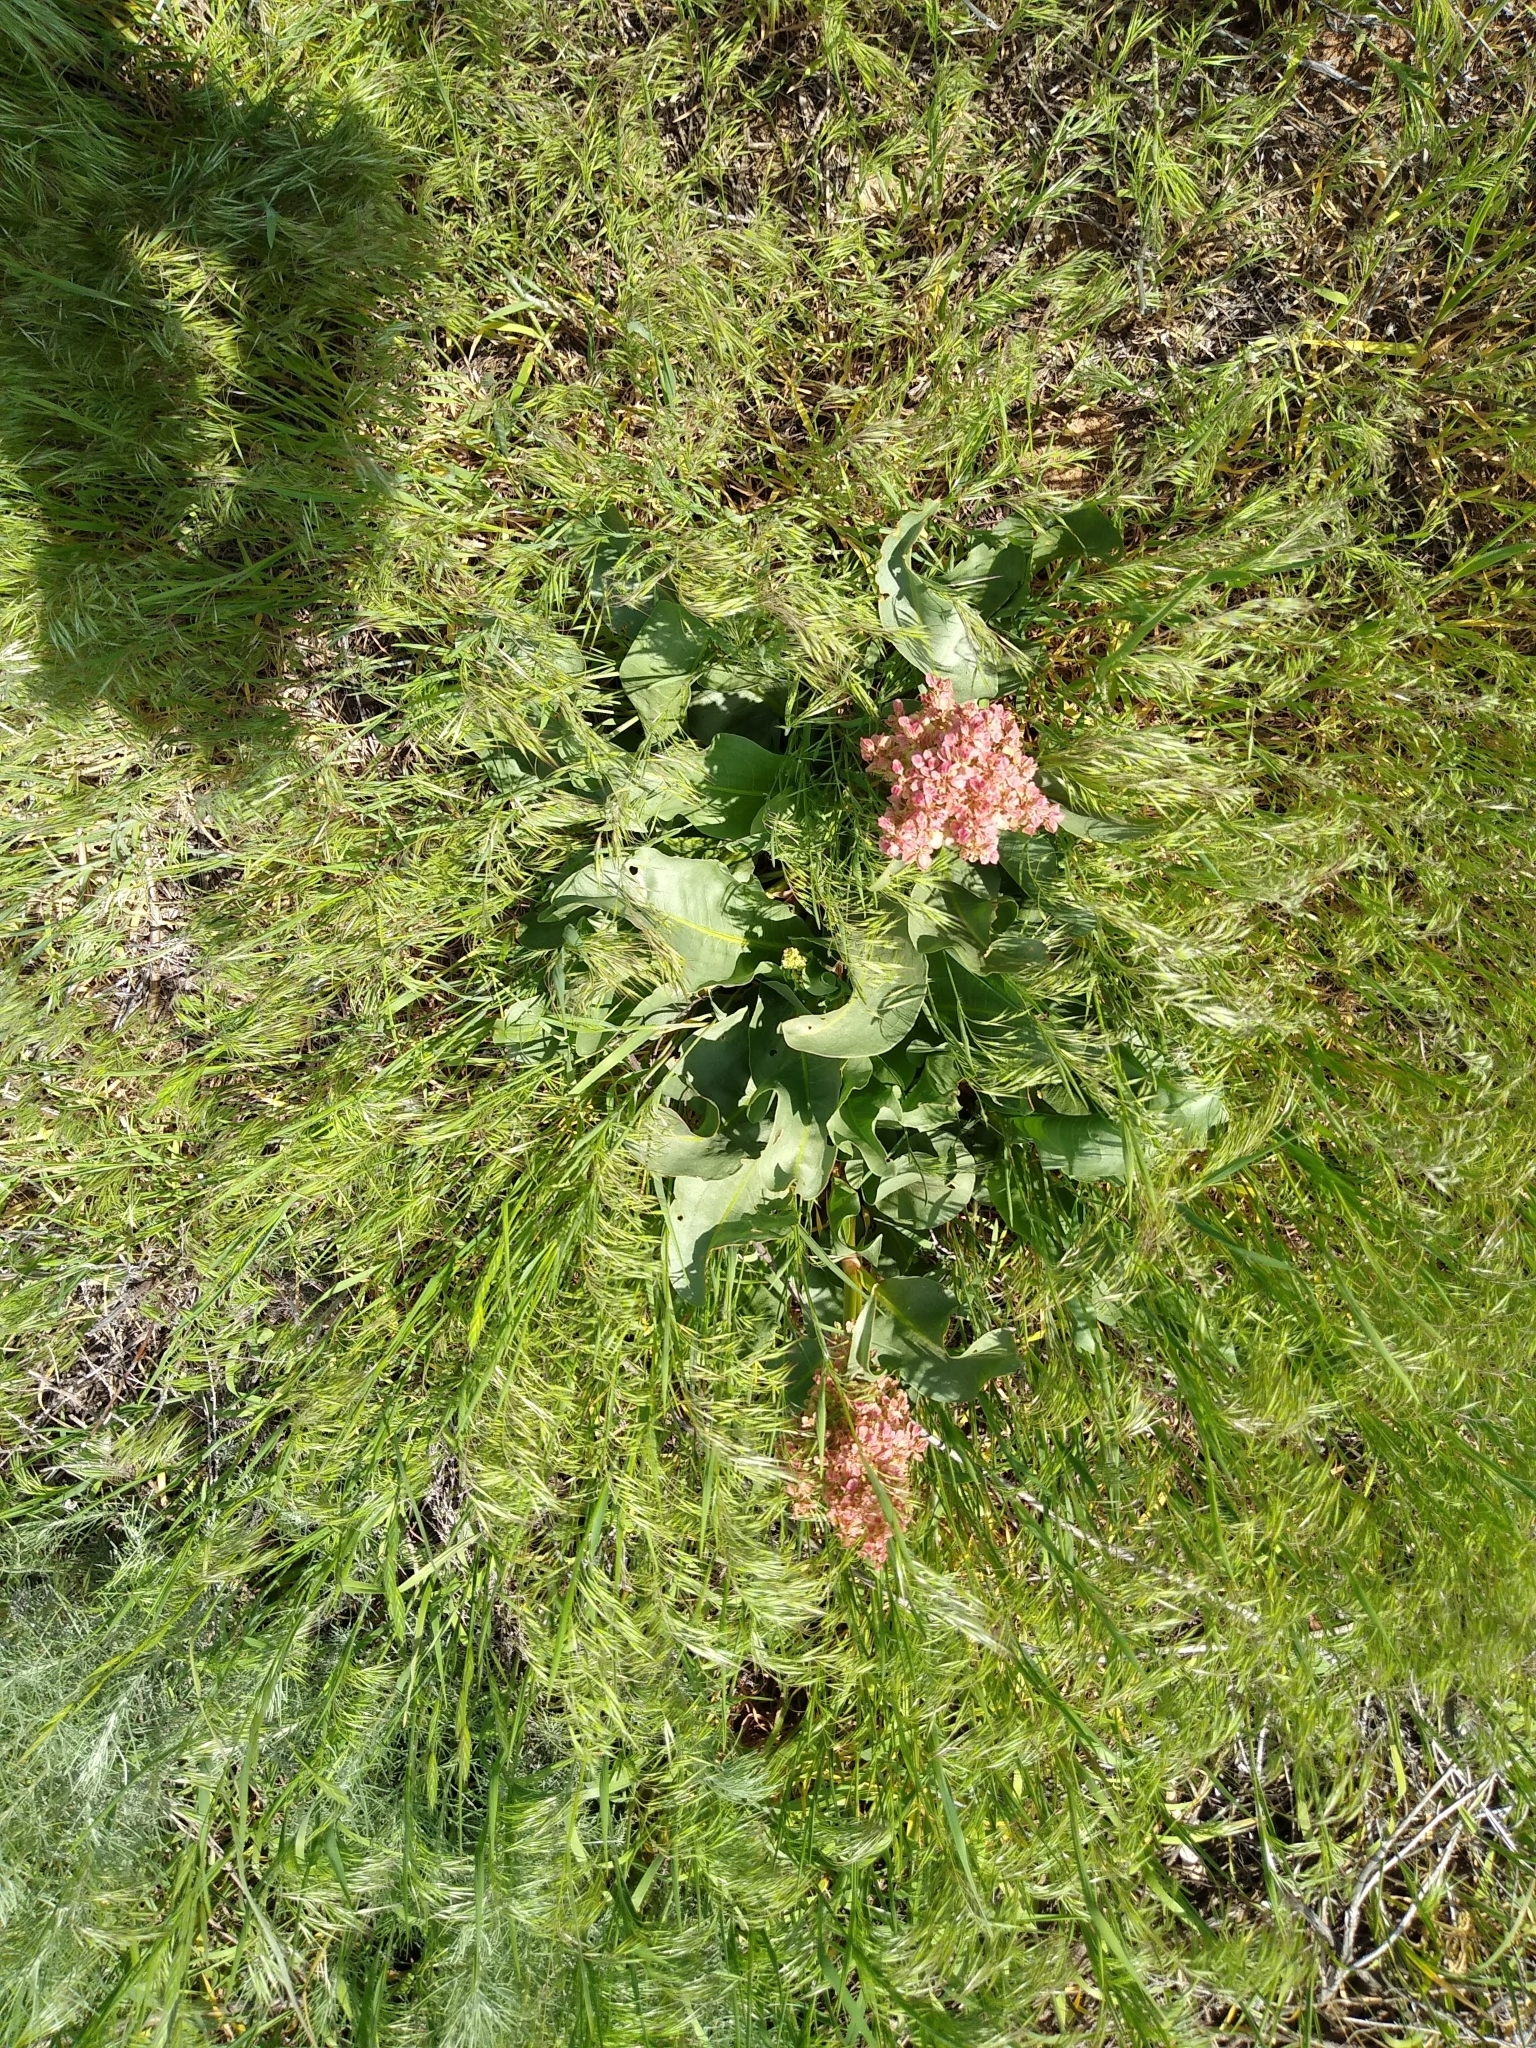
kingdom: Plantae
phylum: Tracheophyta
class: Magnoliopsida
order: Caryophyllales
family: Polygonaceae
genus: Rumex
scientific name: Rumex hymenosepalus
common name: Ganagra
